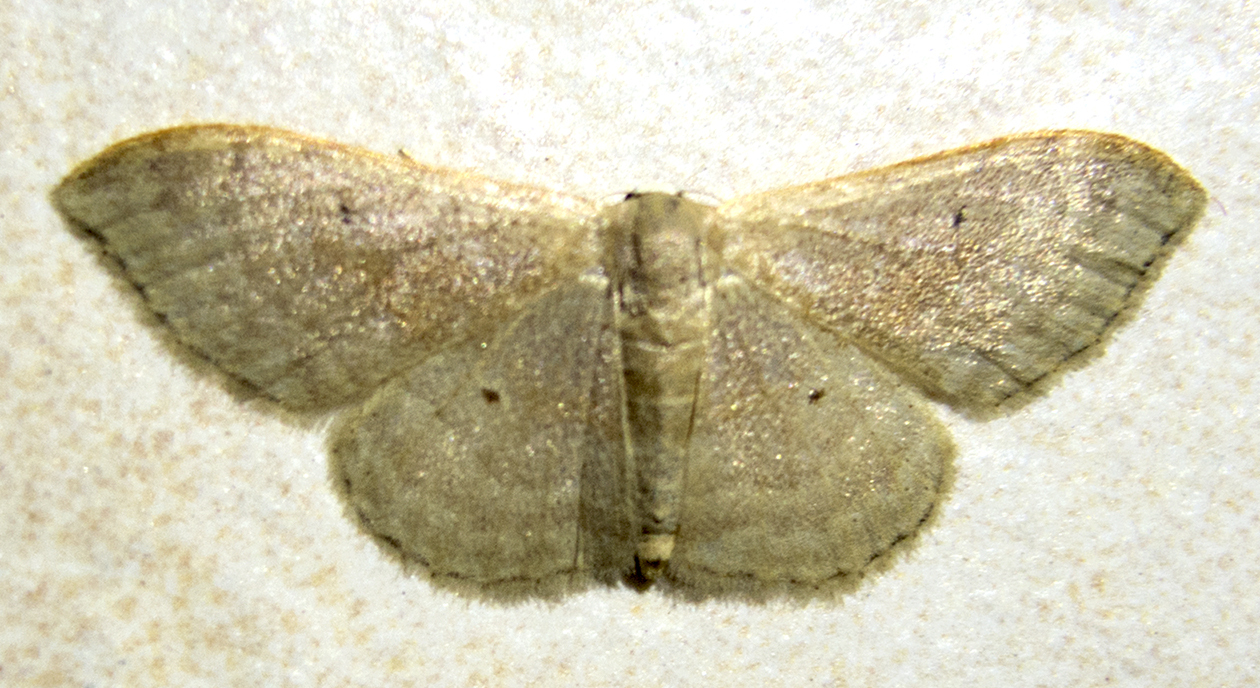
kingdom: Animalia
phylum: Arthropoda
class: Insecta
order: Lepidoptera
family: Geometridae
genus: Idaea
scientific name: Idaea degeneraria
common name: Portland ribbon wave
